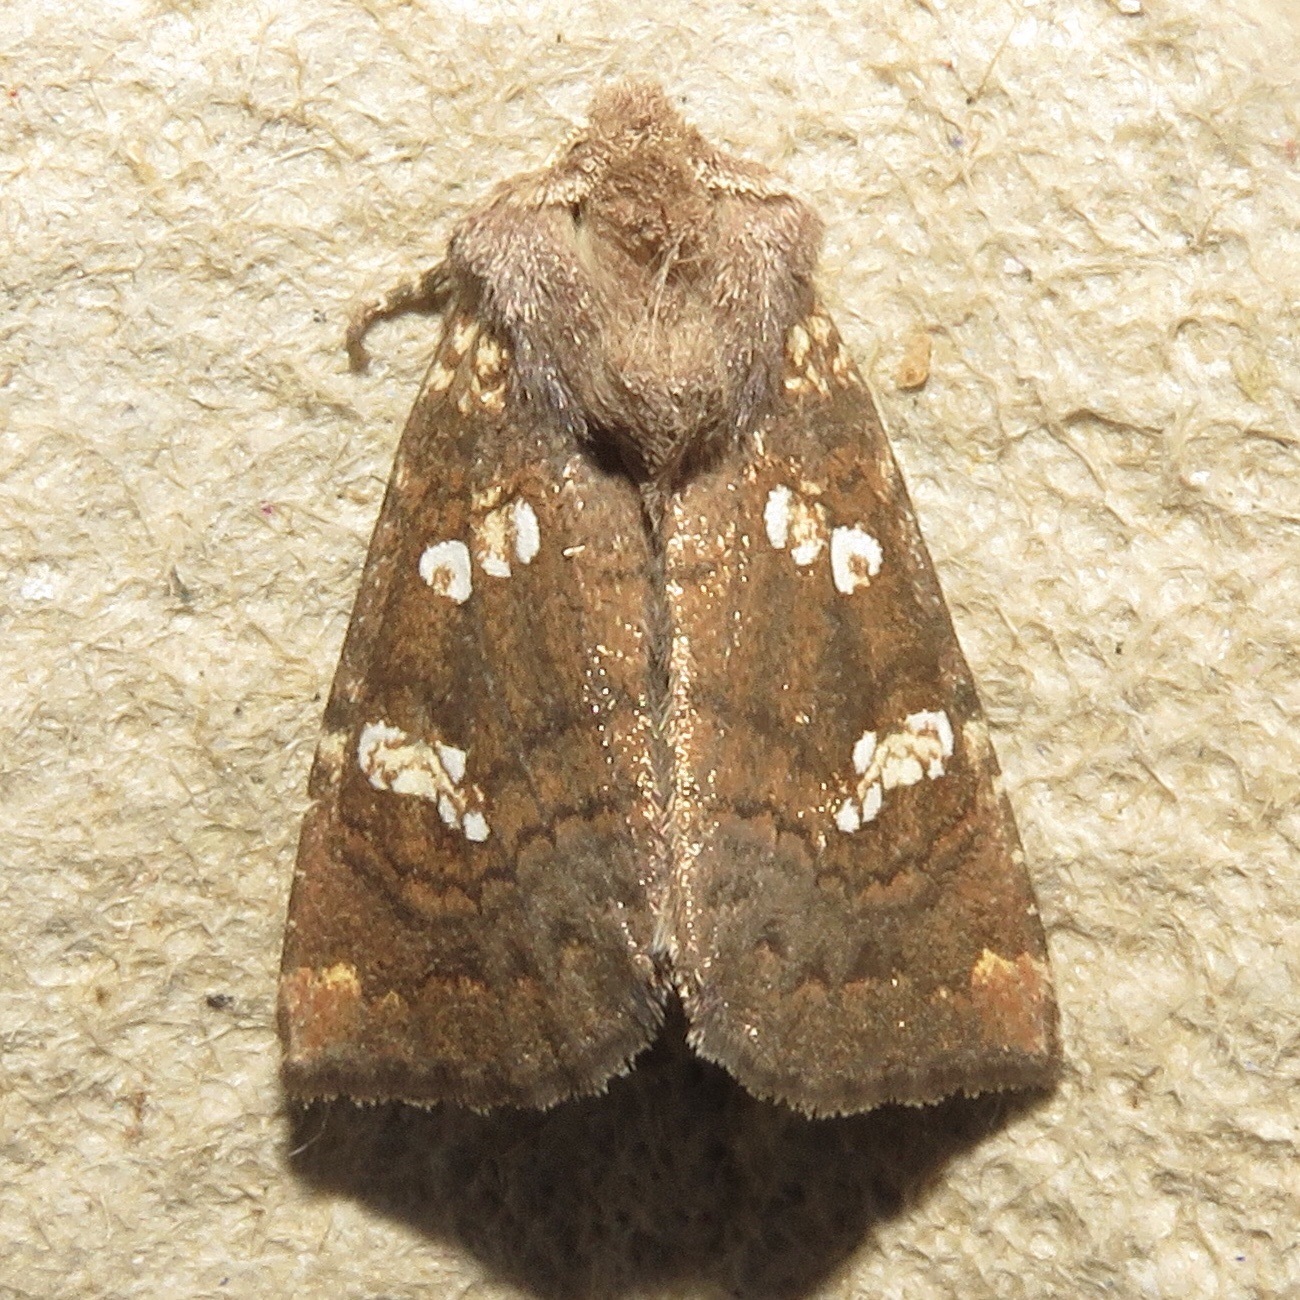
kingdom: Animalia
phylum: Arthropoda
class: Insecta
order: Lepidoptera
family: Noctuidae
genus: Papaipema
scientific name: Papaipema unimoda
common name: Meadow rue borer moth
